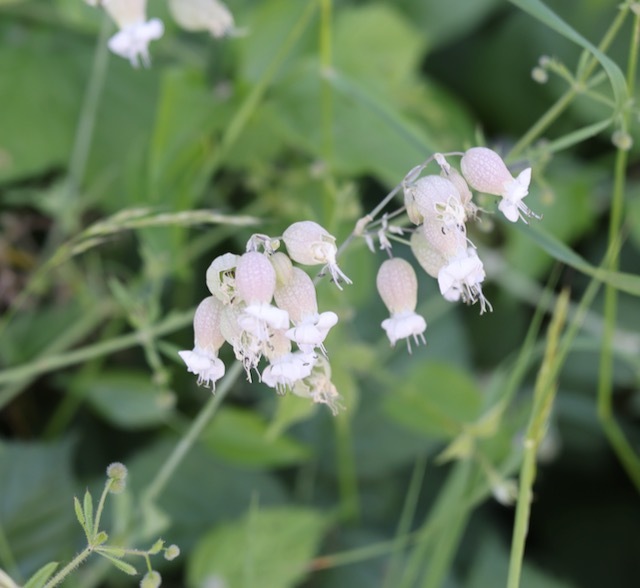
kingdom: Plantae
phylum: Tracheophyta
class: Magnoliopsida
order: Caryophyllales
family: Caryophyllaceae
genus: Silene
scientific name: Silene vulgaris
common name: Bladder campion
